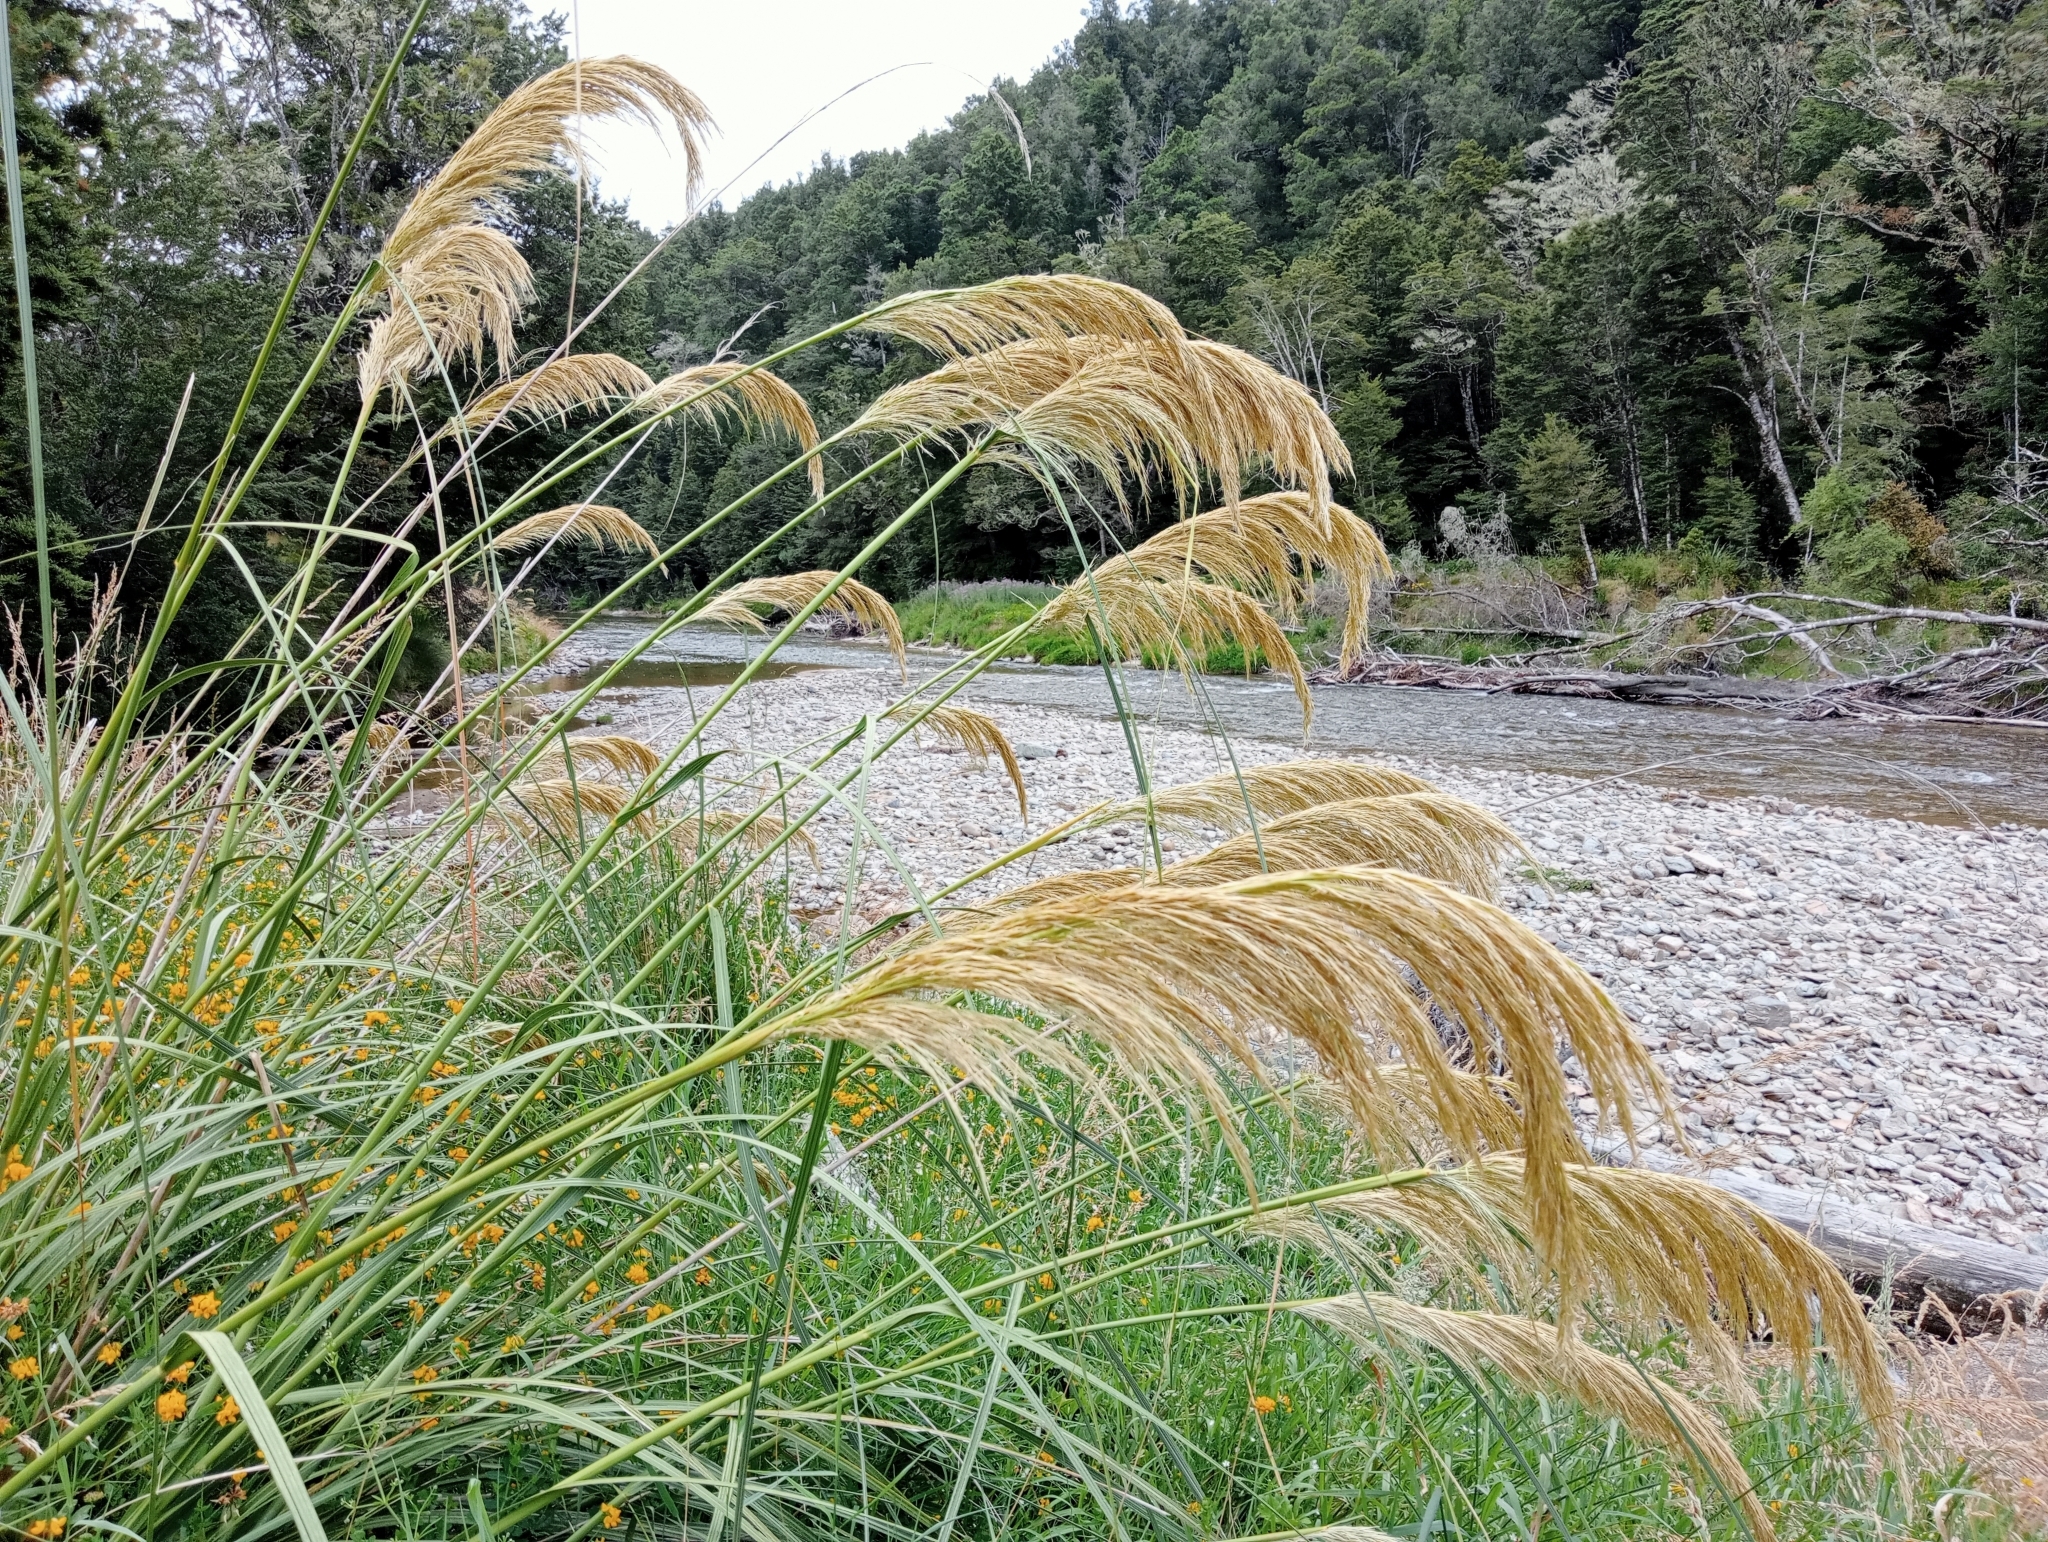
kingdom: Plantae
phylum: Tracheophyta
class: Liliopsida
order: Poales
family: Poaceae
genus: Austroderia
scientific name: Austroderia richardii
